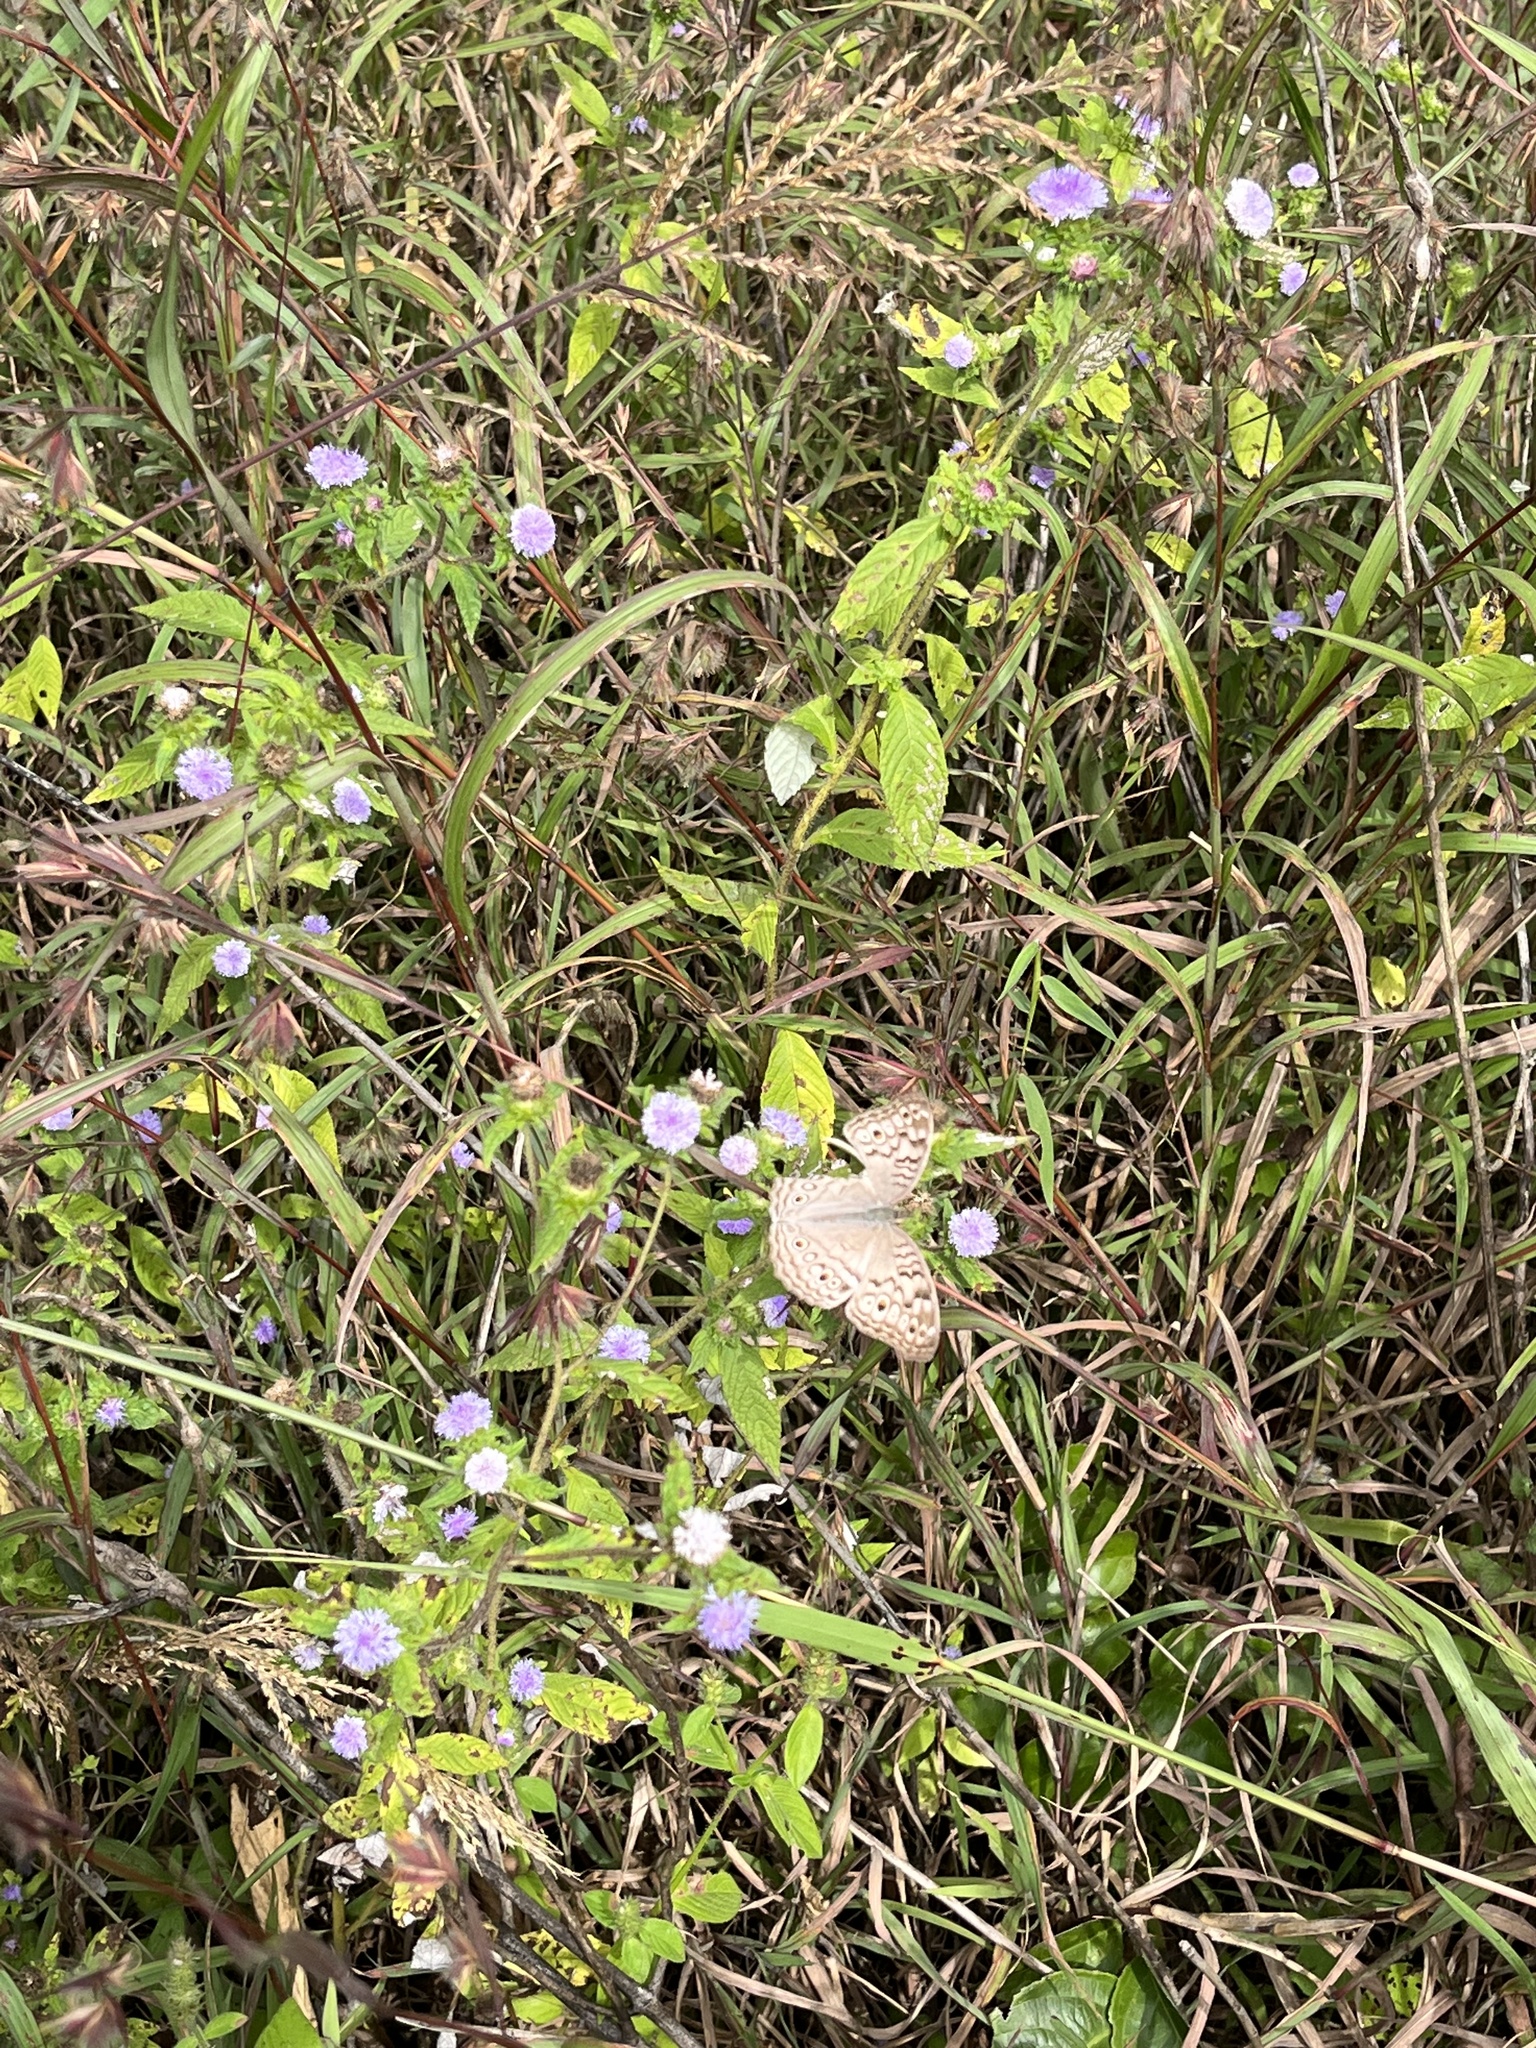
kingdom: Animalia
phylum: Arthropoda
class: Insecta
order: Lepidoptera
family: Nymphalidae
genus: Junonia
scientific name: Junonia atlites
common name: Grey pansy
